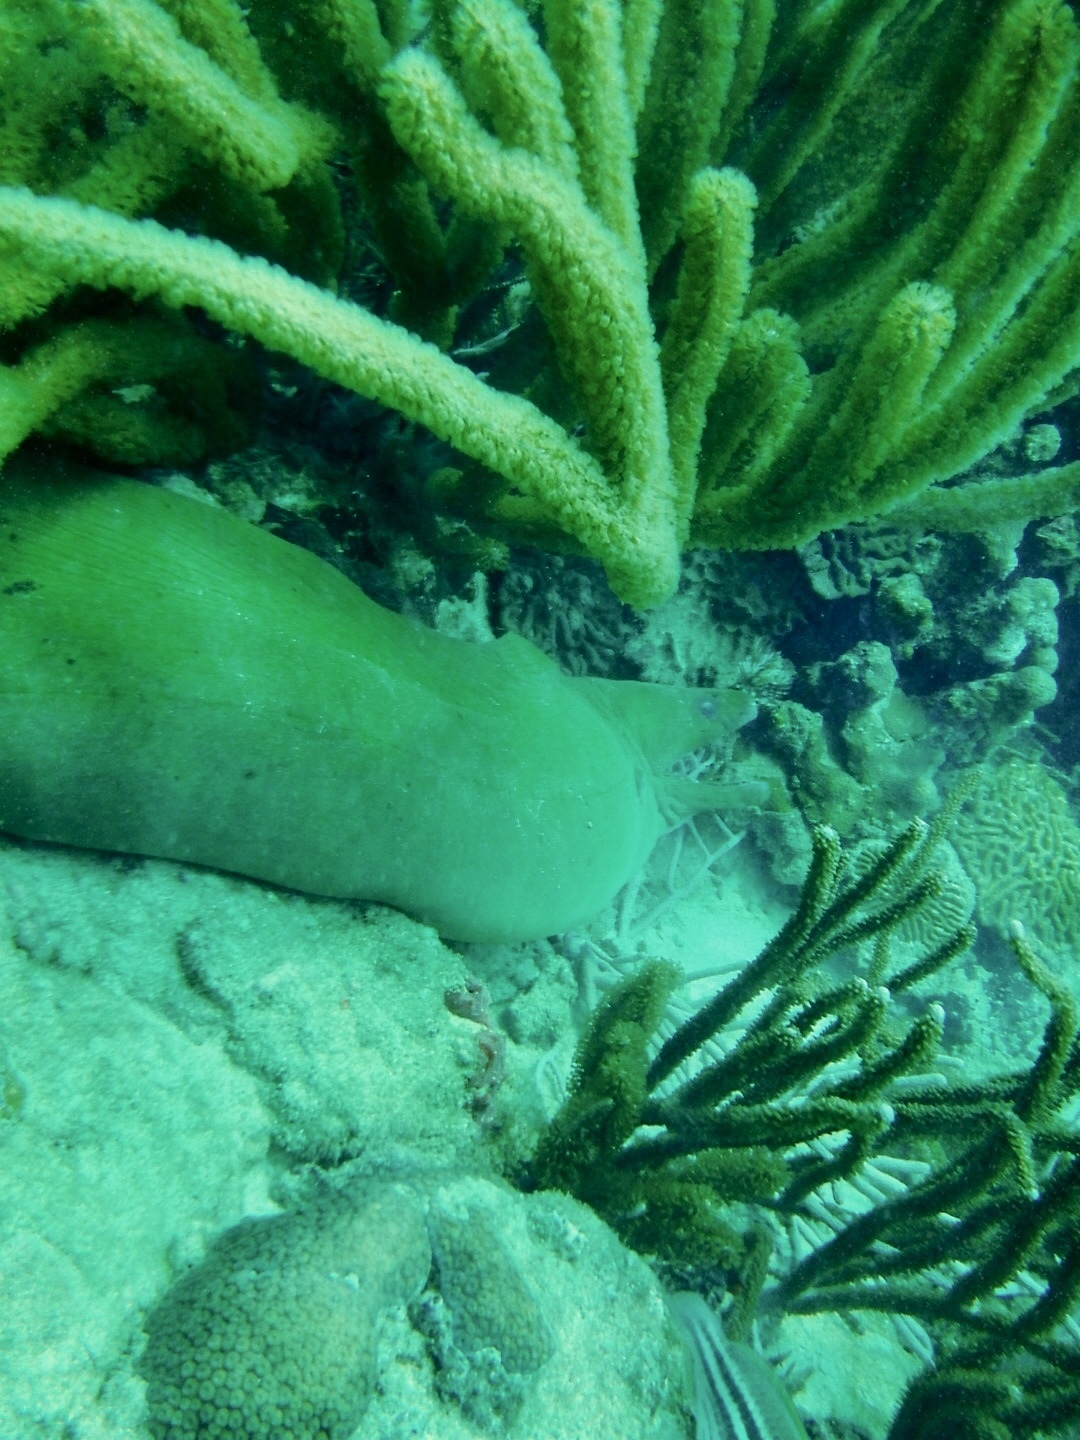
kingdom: Animalia
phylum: Chordata
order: Anguilliformes
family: Muraenidae
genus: Gymnothorax
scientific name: Gymnothorax funebris
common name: Green moray
